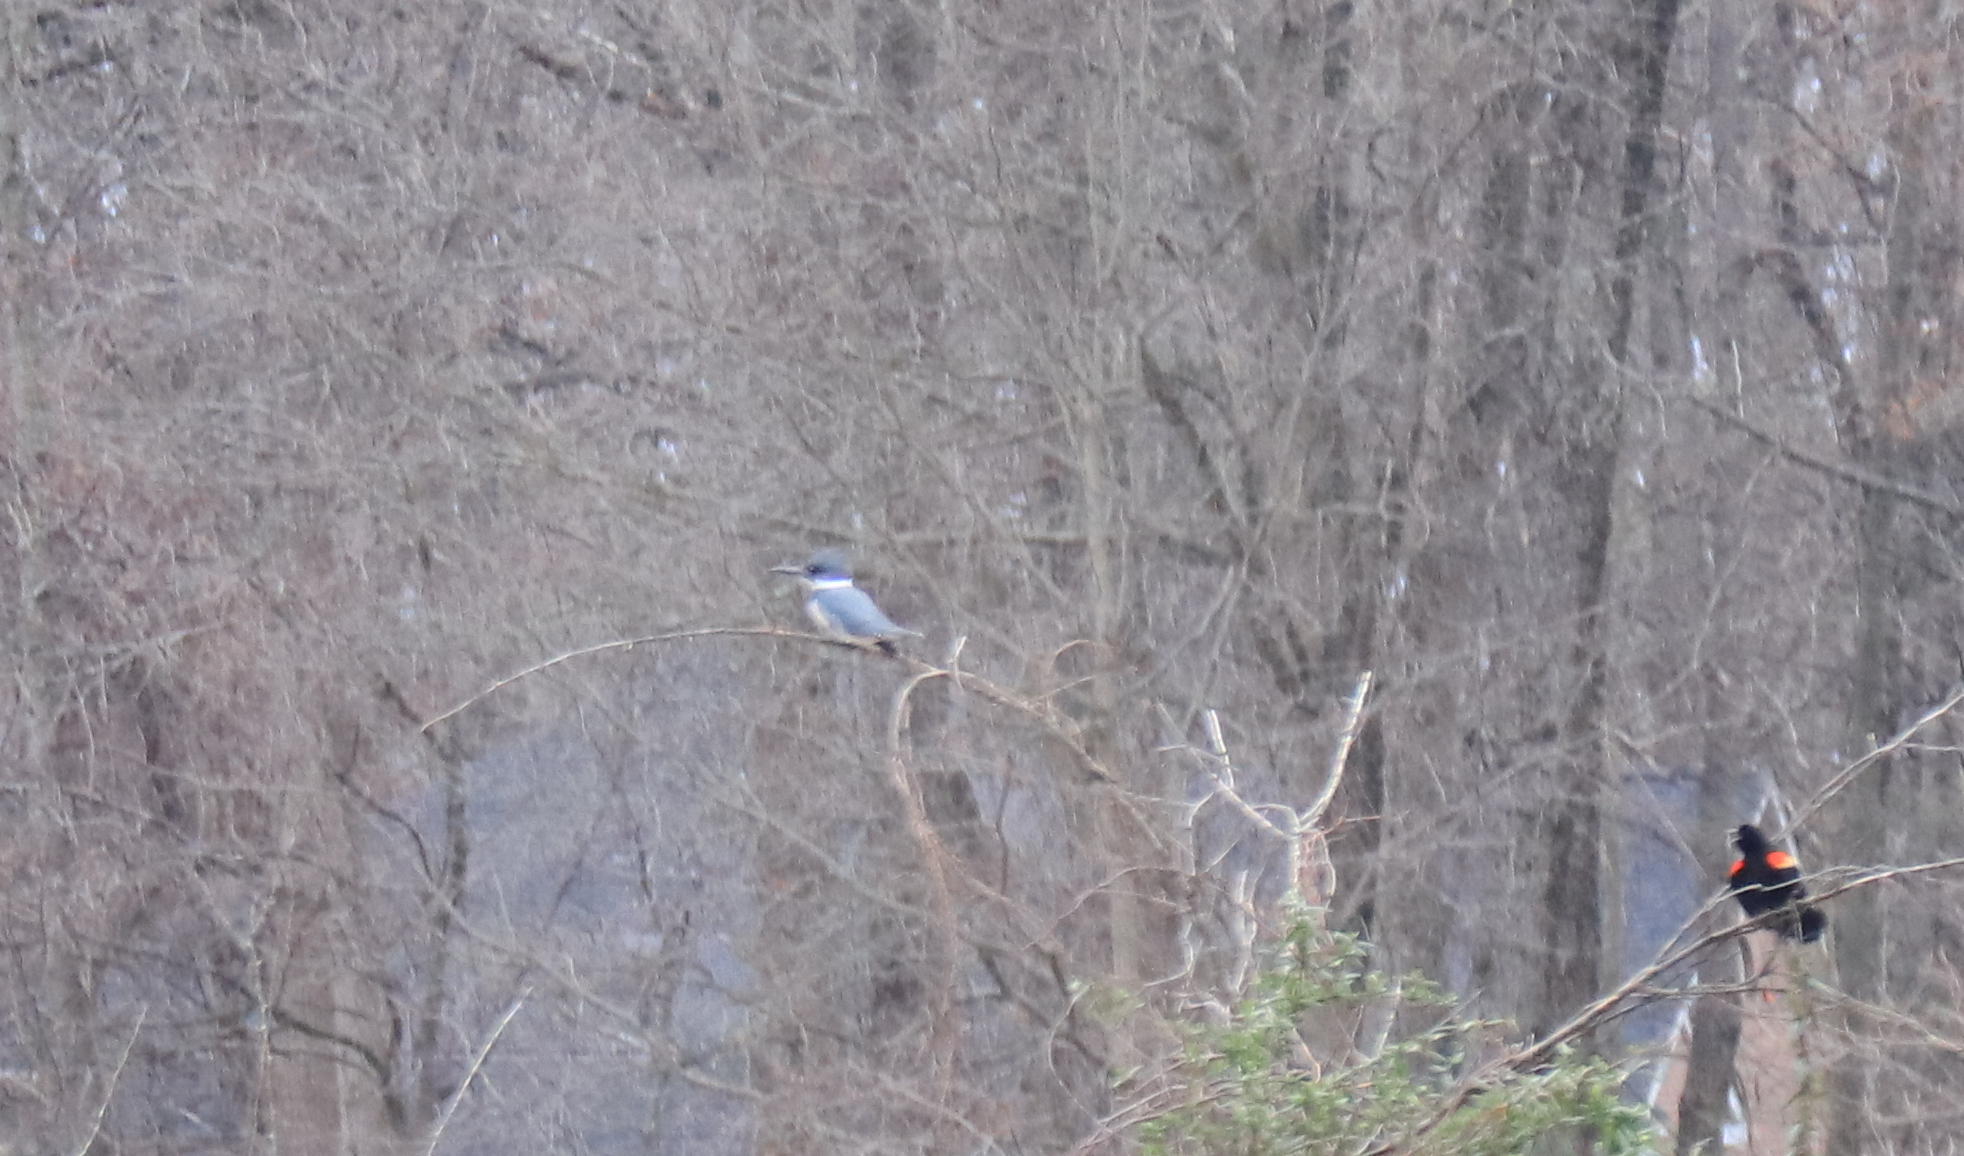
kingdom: Animalia
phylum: Chordata
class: Aves
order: Coraciiformes
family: Alcedinidae
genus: Megaceryle
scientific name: Megaceryle alcyon
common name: Belted kingfisher
